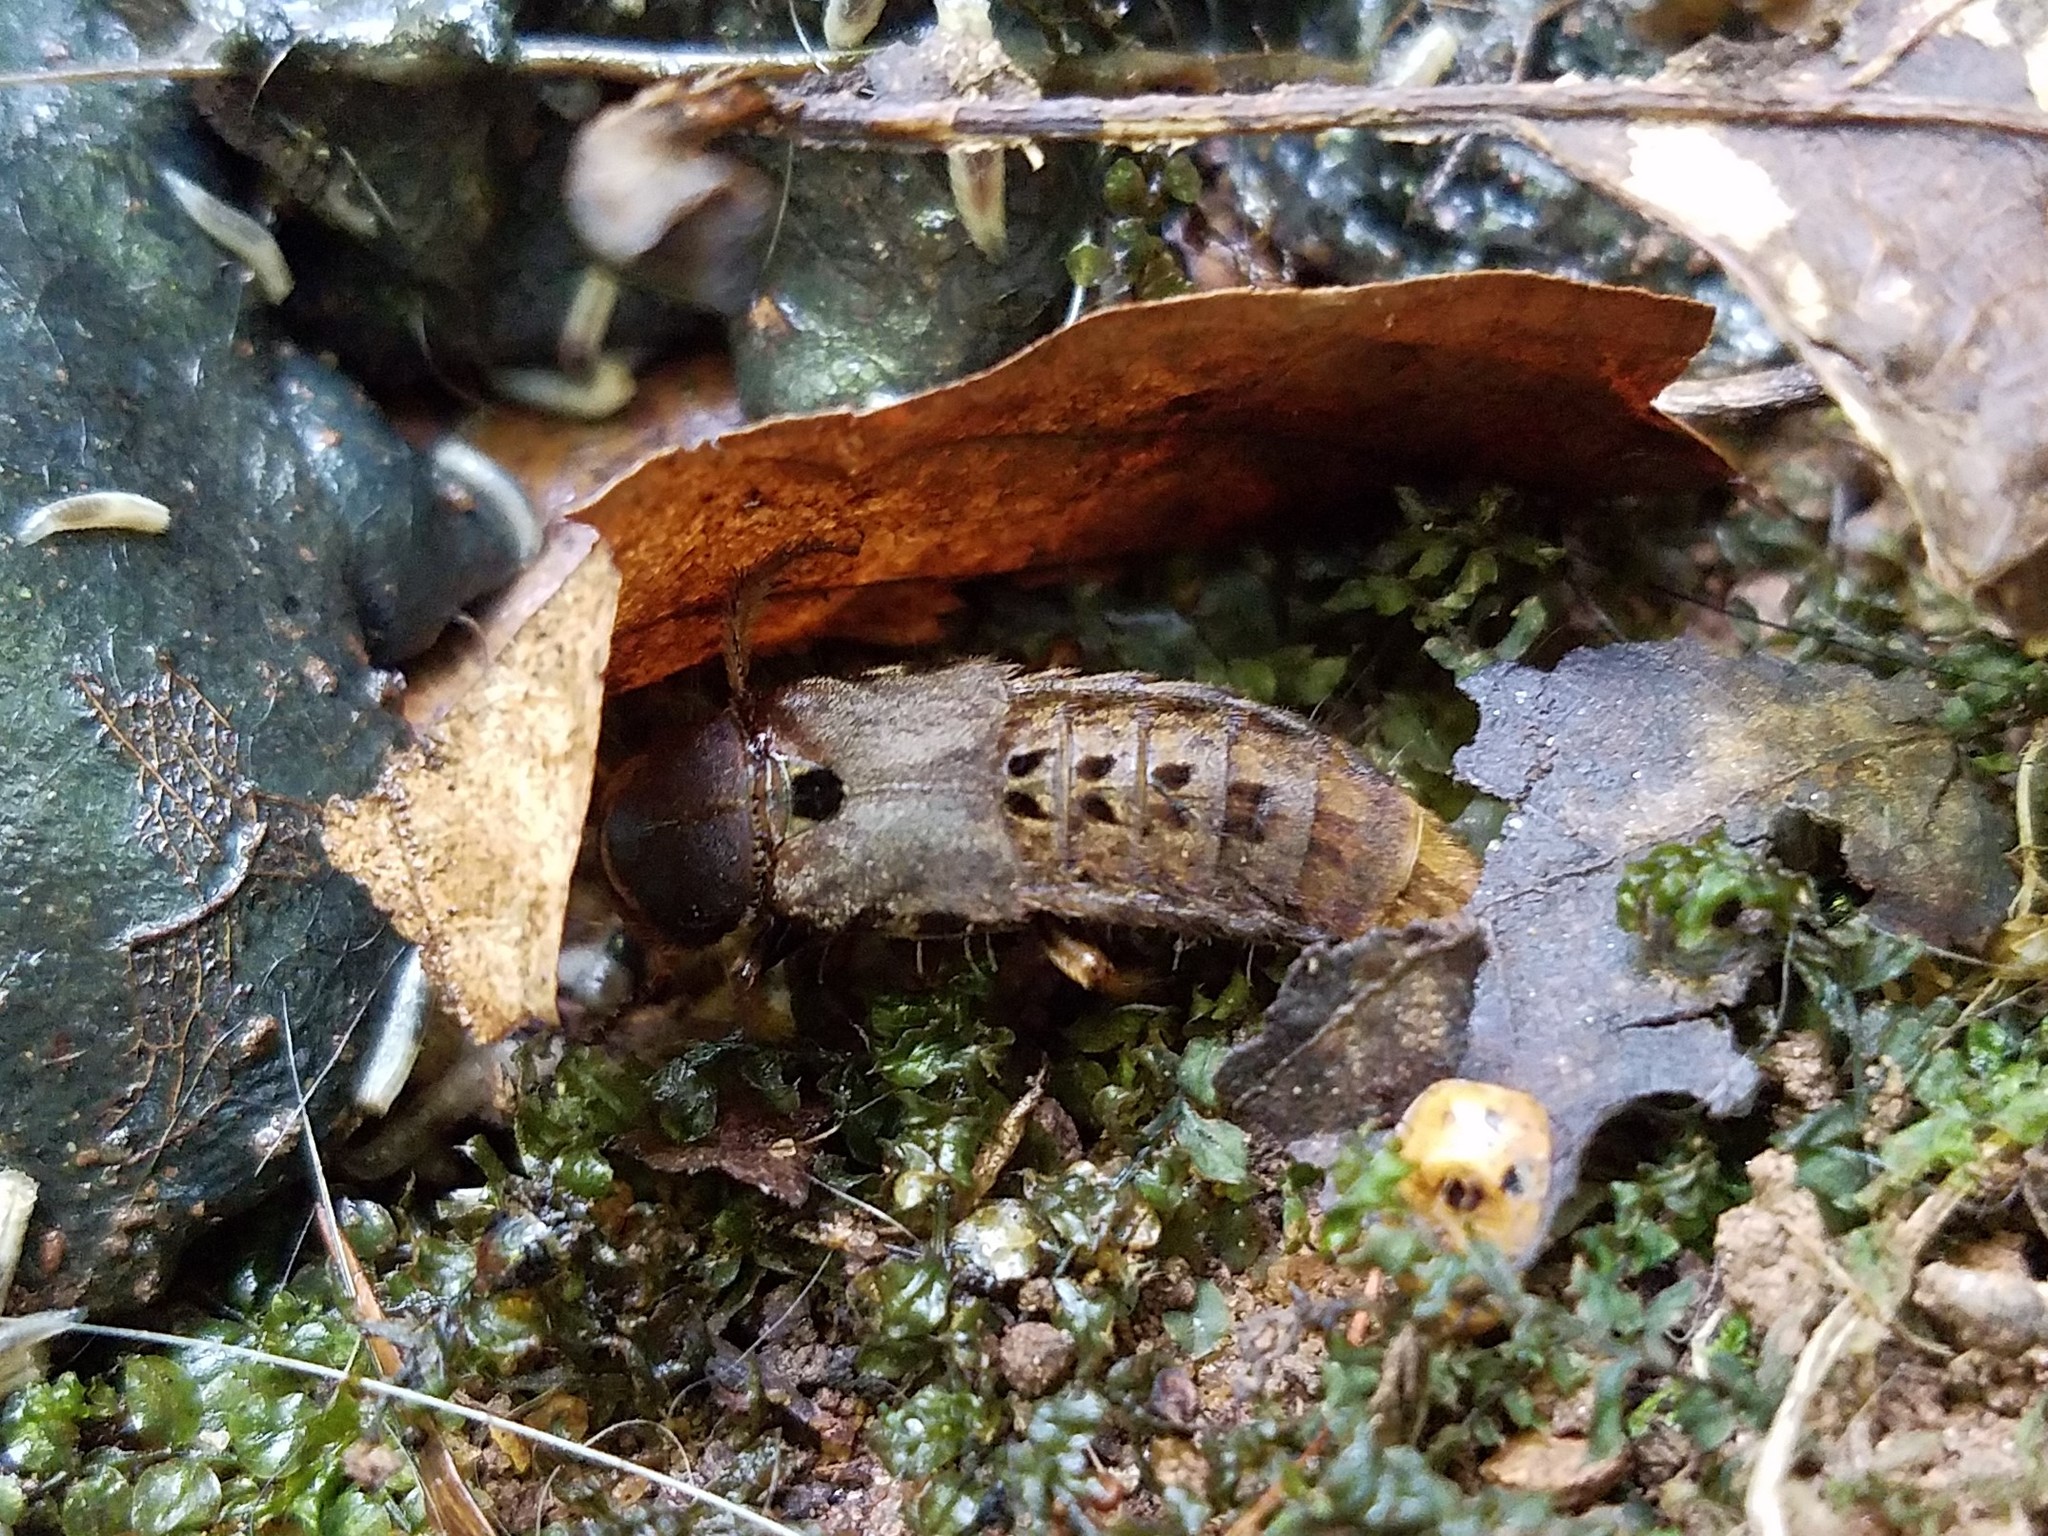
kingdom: Animalia
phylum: Arthropoda
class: Insecta
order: Coleoptera
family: Staphylinidae
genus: Platydracus
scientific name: Platydracus maculosus
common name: Brown rove beetle
